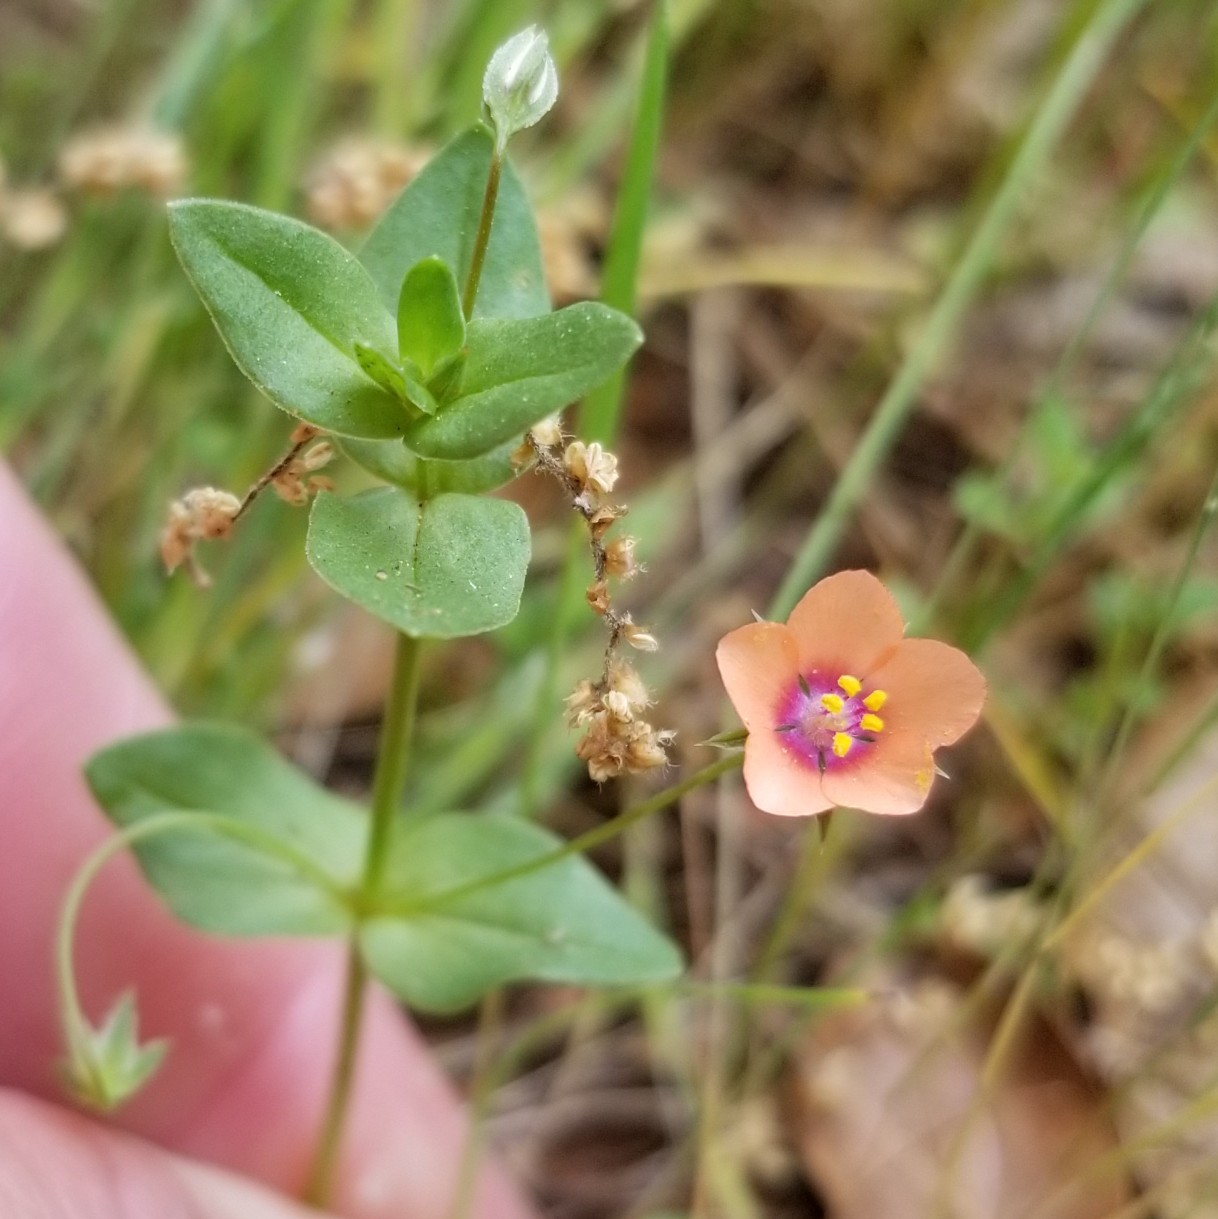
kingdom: Plantae
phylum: Tracheophyta
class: Magnoliopsida
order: Ericales
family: Primulaceae
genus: Lysimachia
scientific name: Lysimachia arvensis
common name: Scarlet pimpernel
